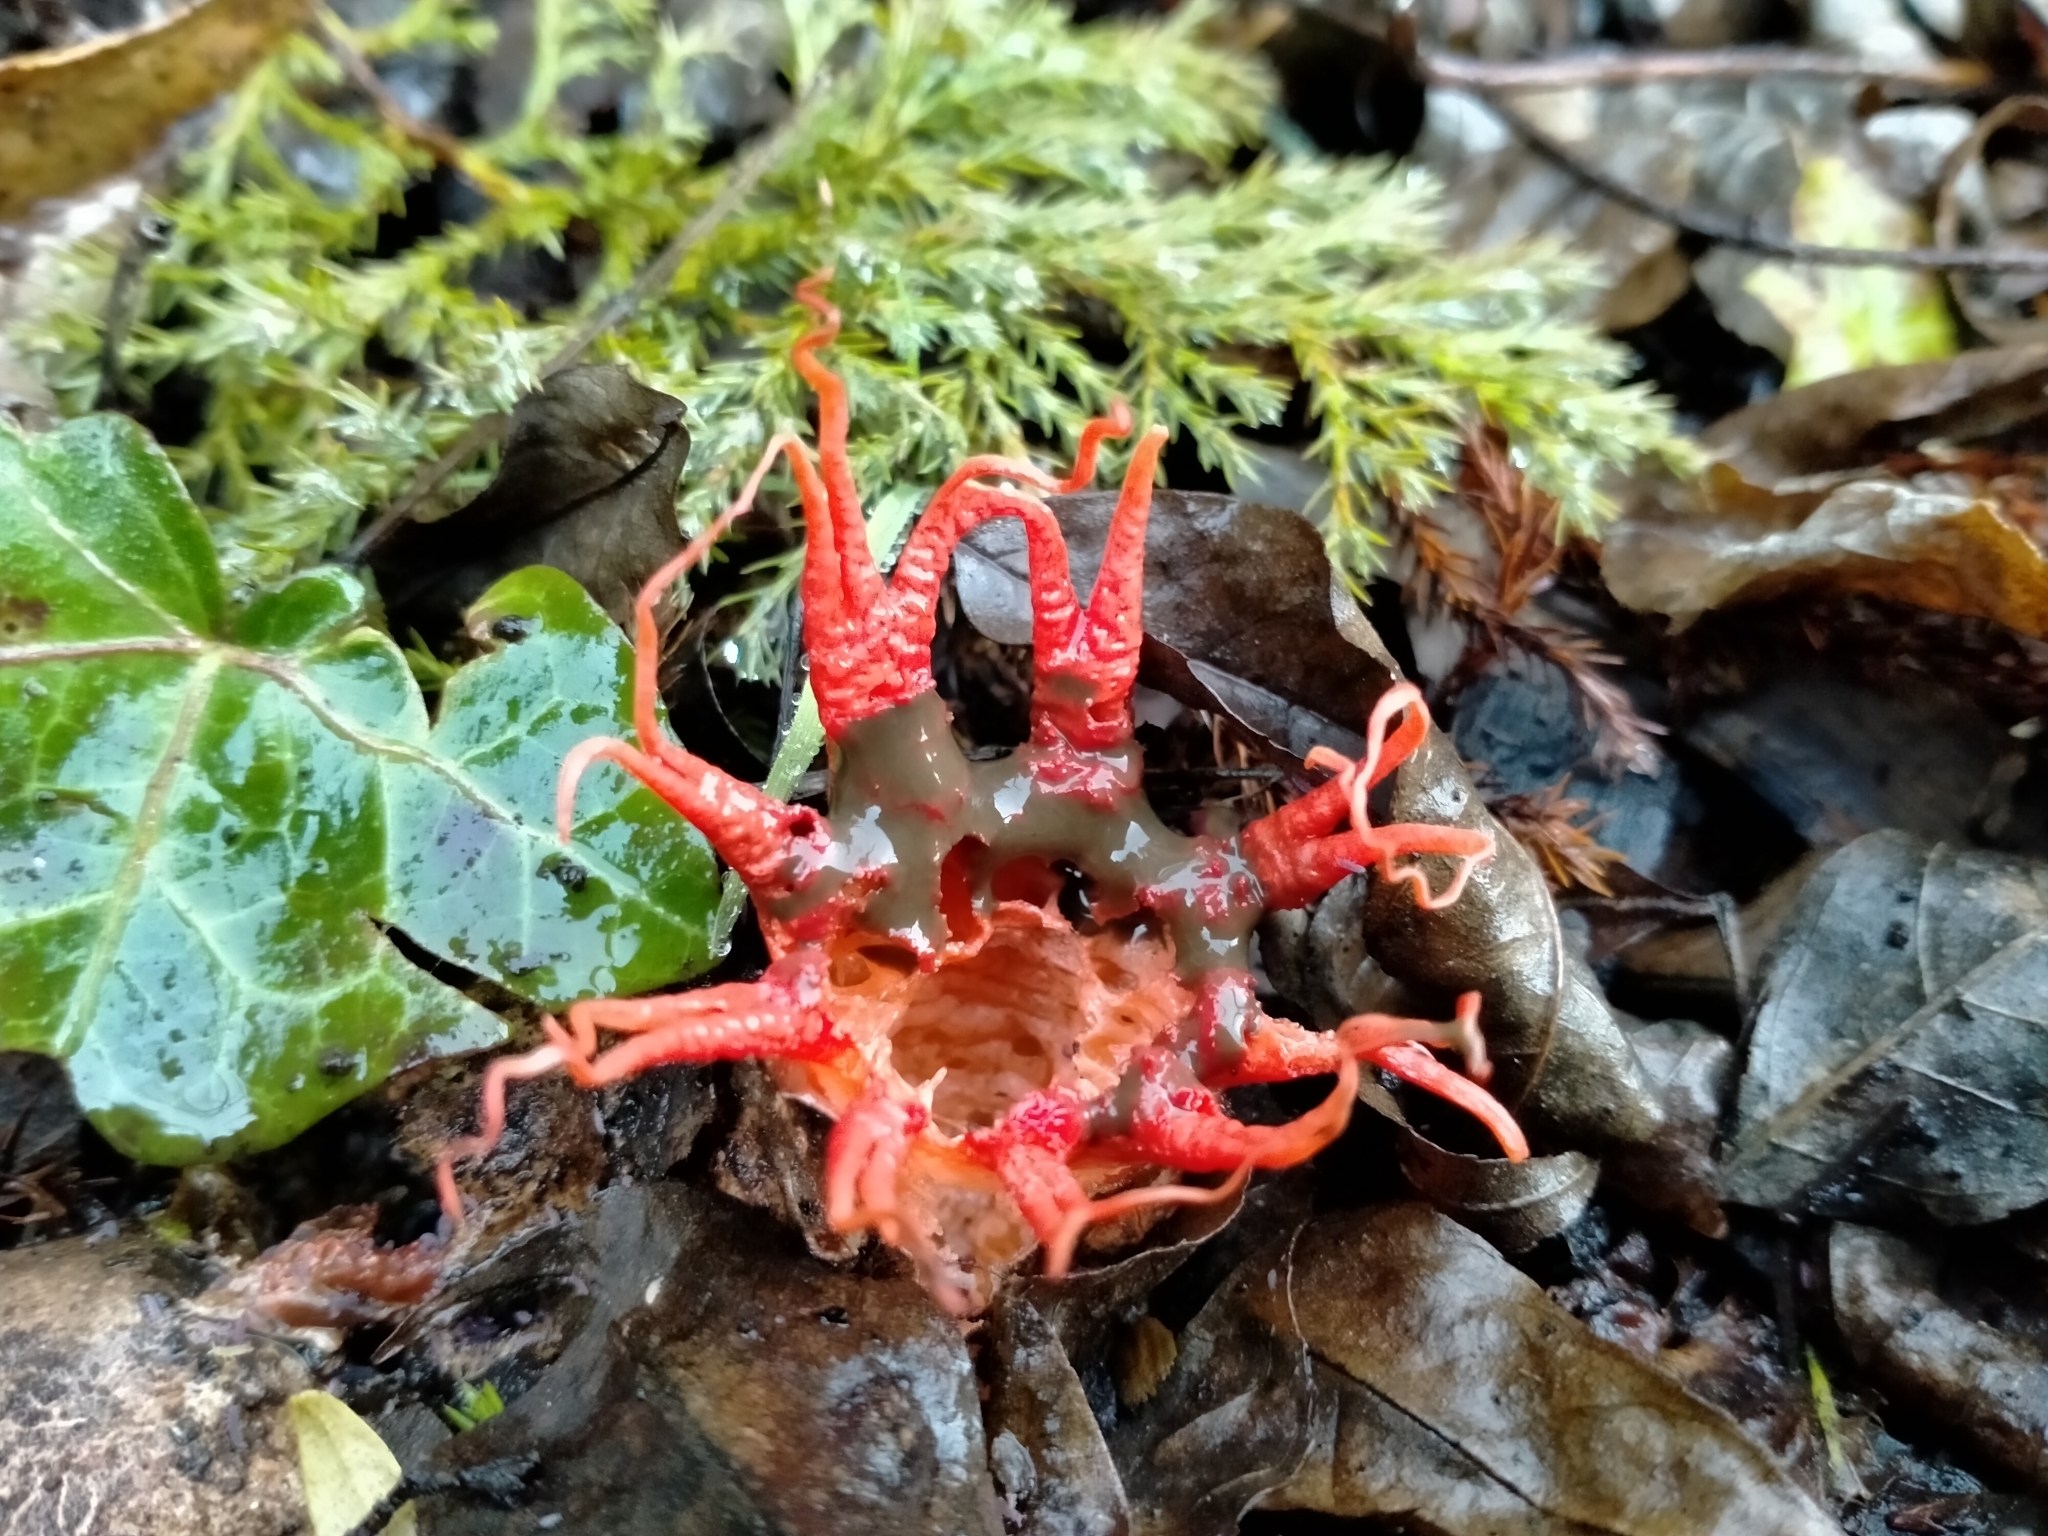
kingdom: Fungi
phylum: Basidiomycota
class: Agaricomycetes
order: Phallales
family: Phallaceae
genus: Aseroe
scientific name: Aseroe rubra
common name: Starfish fungus
